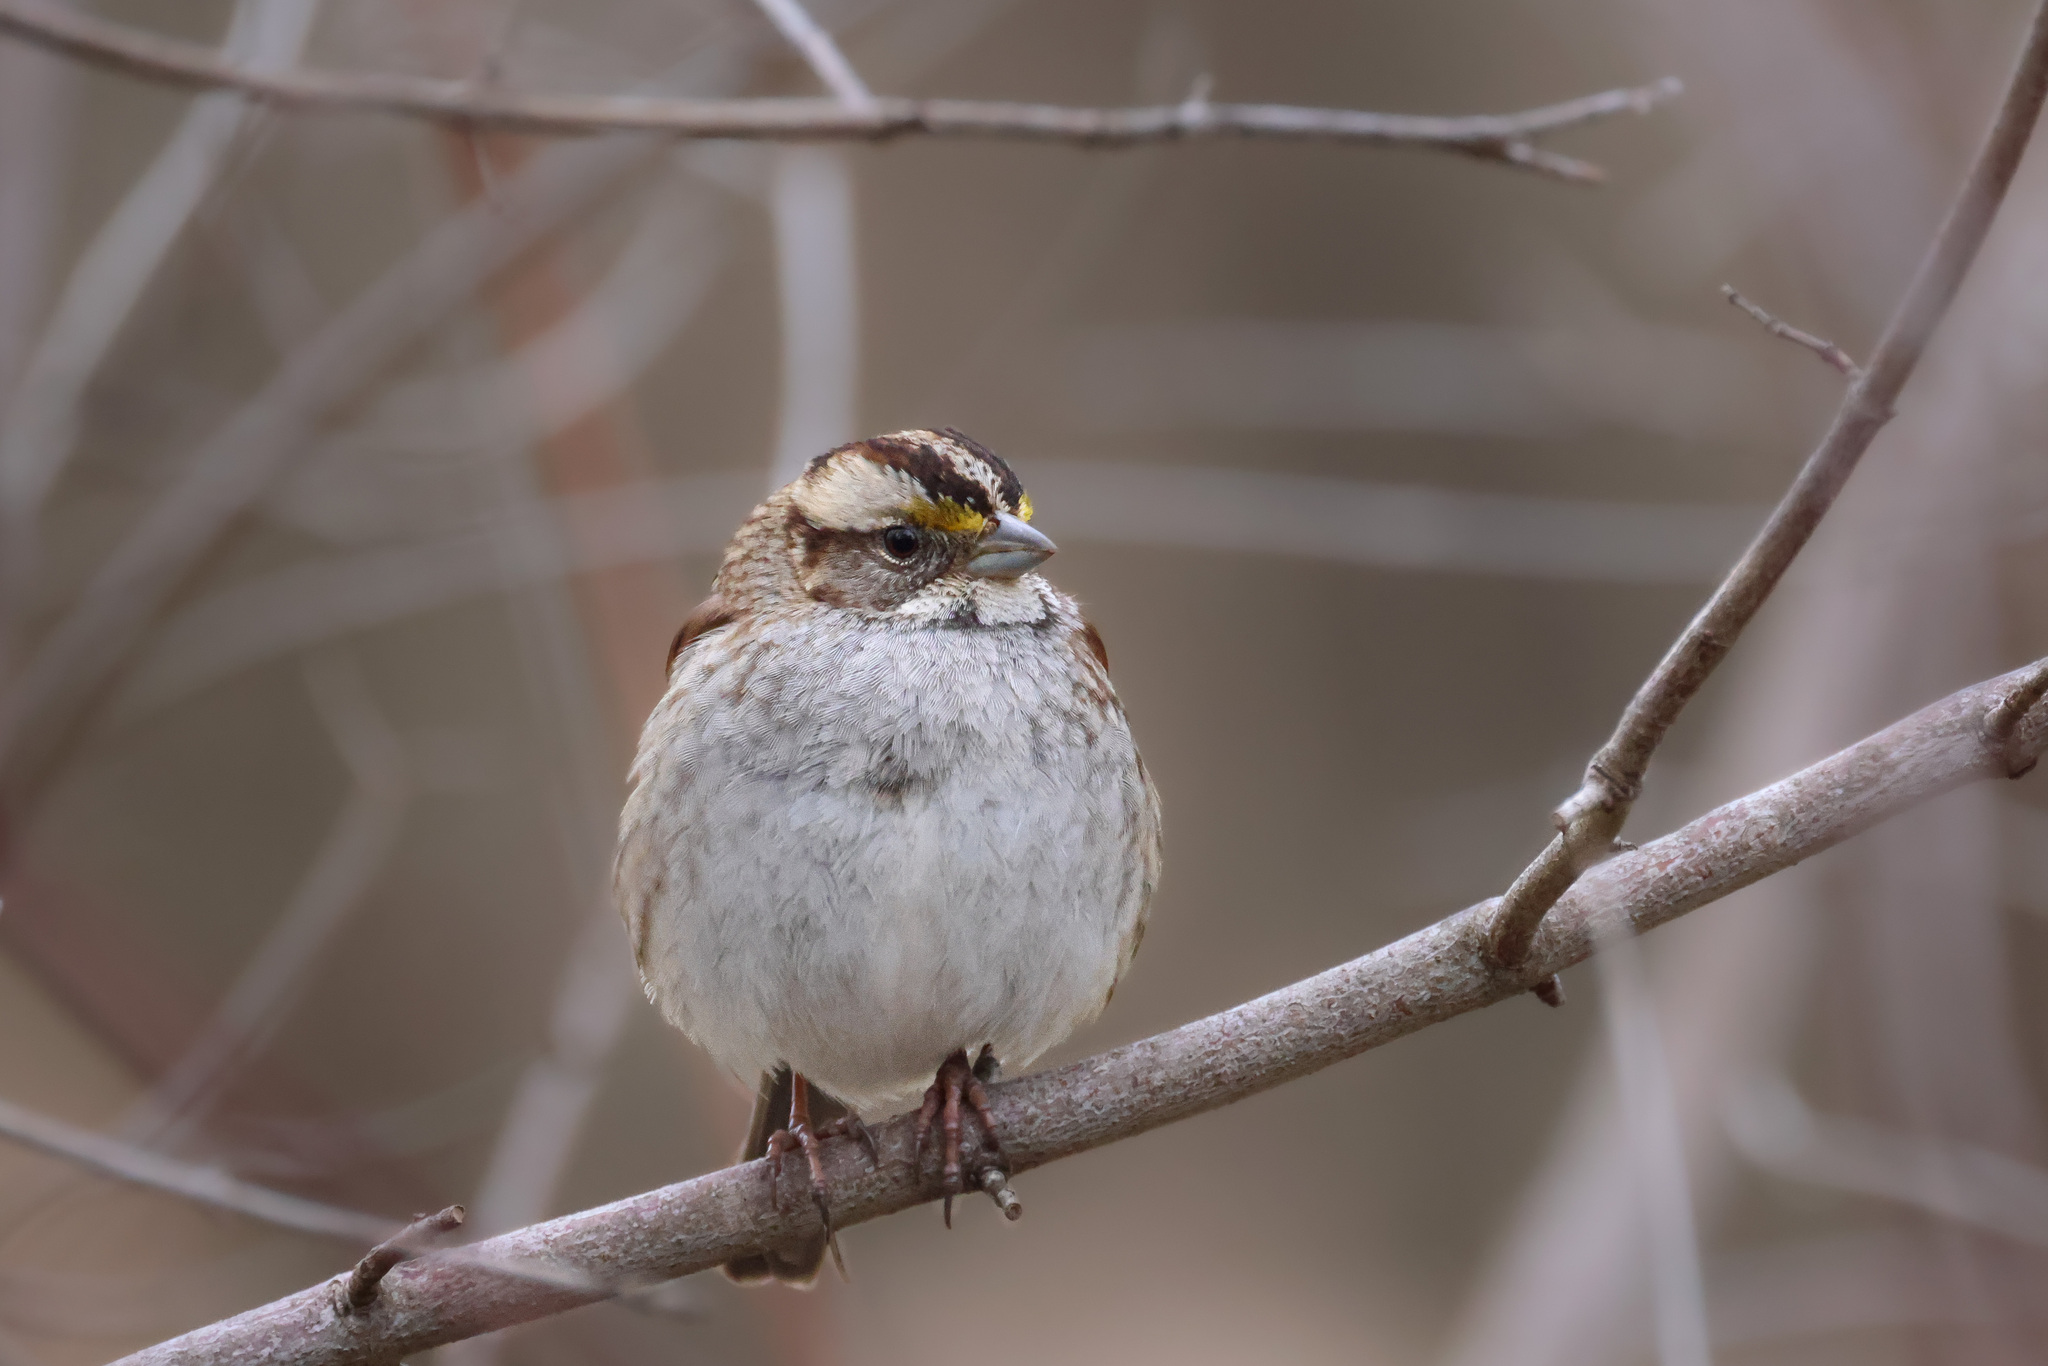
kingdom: Animalia
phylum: Chordata
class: Aves
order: Passeriformes
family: Passerellidae
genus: Zonotrichia
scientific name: Zonotrichia albicollis
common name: White-throated sparrow
